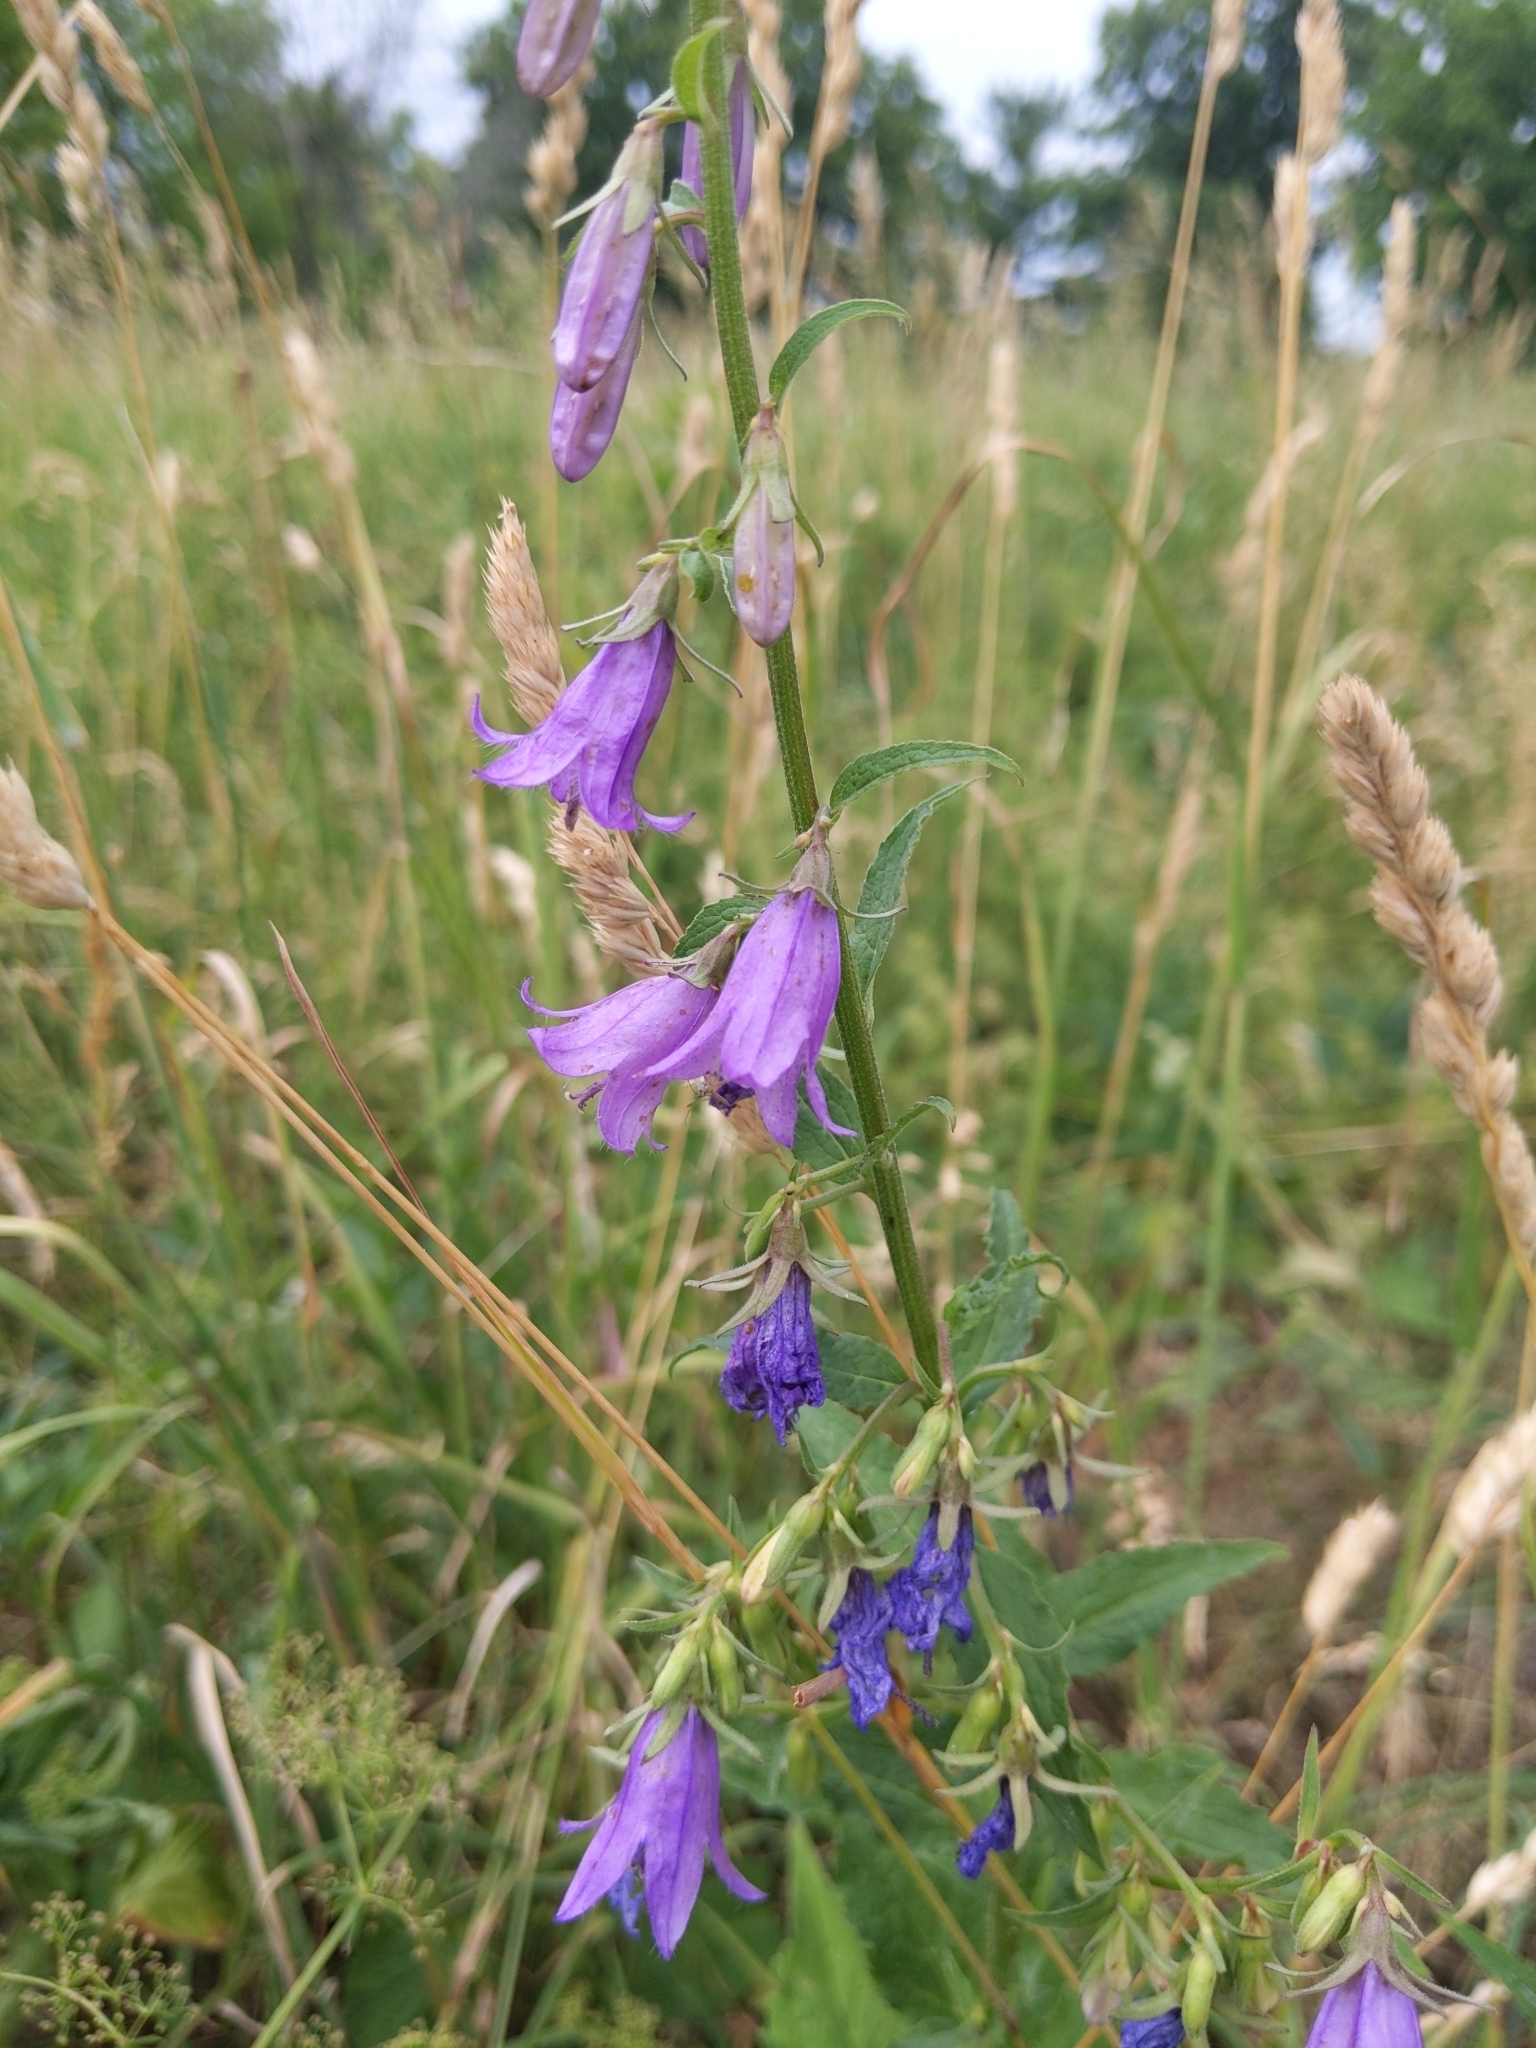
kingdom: Plantae
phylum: Tracheophyta
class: Magnoliopsida
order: Asterales
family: Campanulaceae
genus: Campanula
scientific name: Campanula rapunculoides
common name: Creeping bellflower
